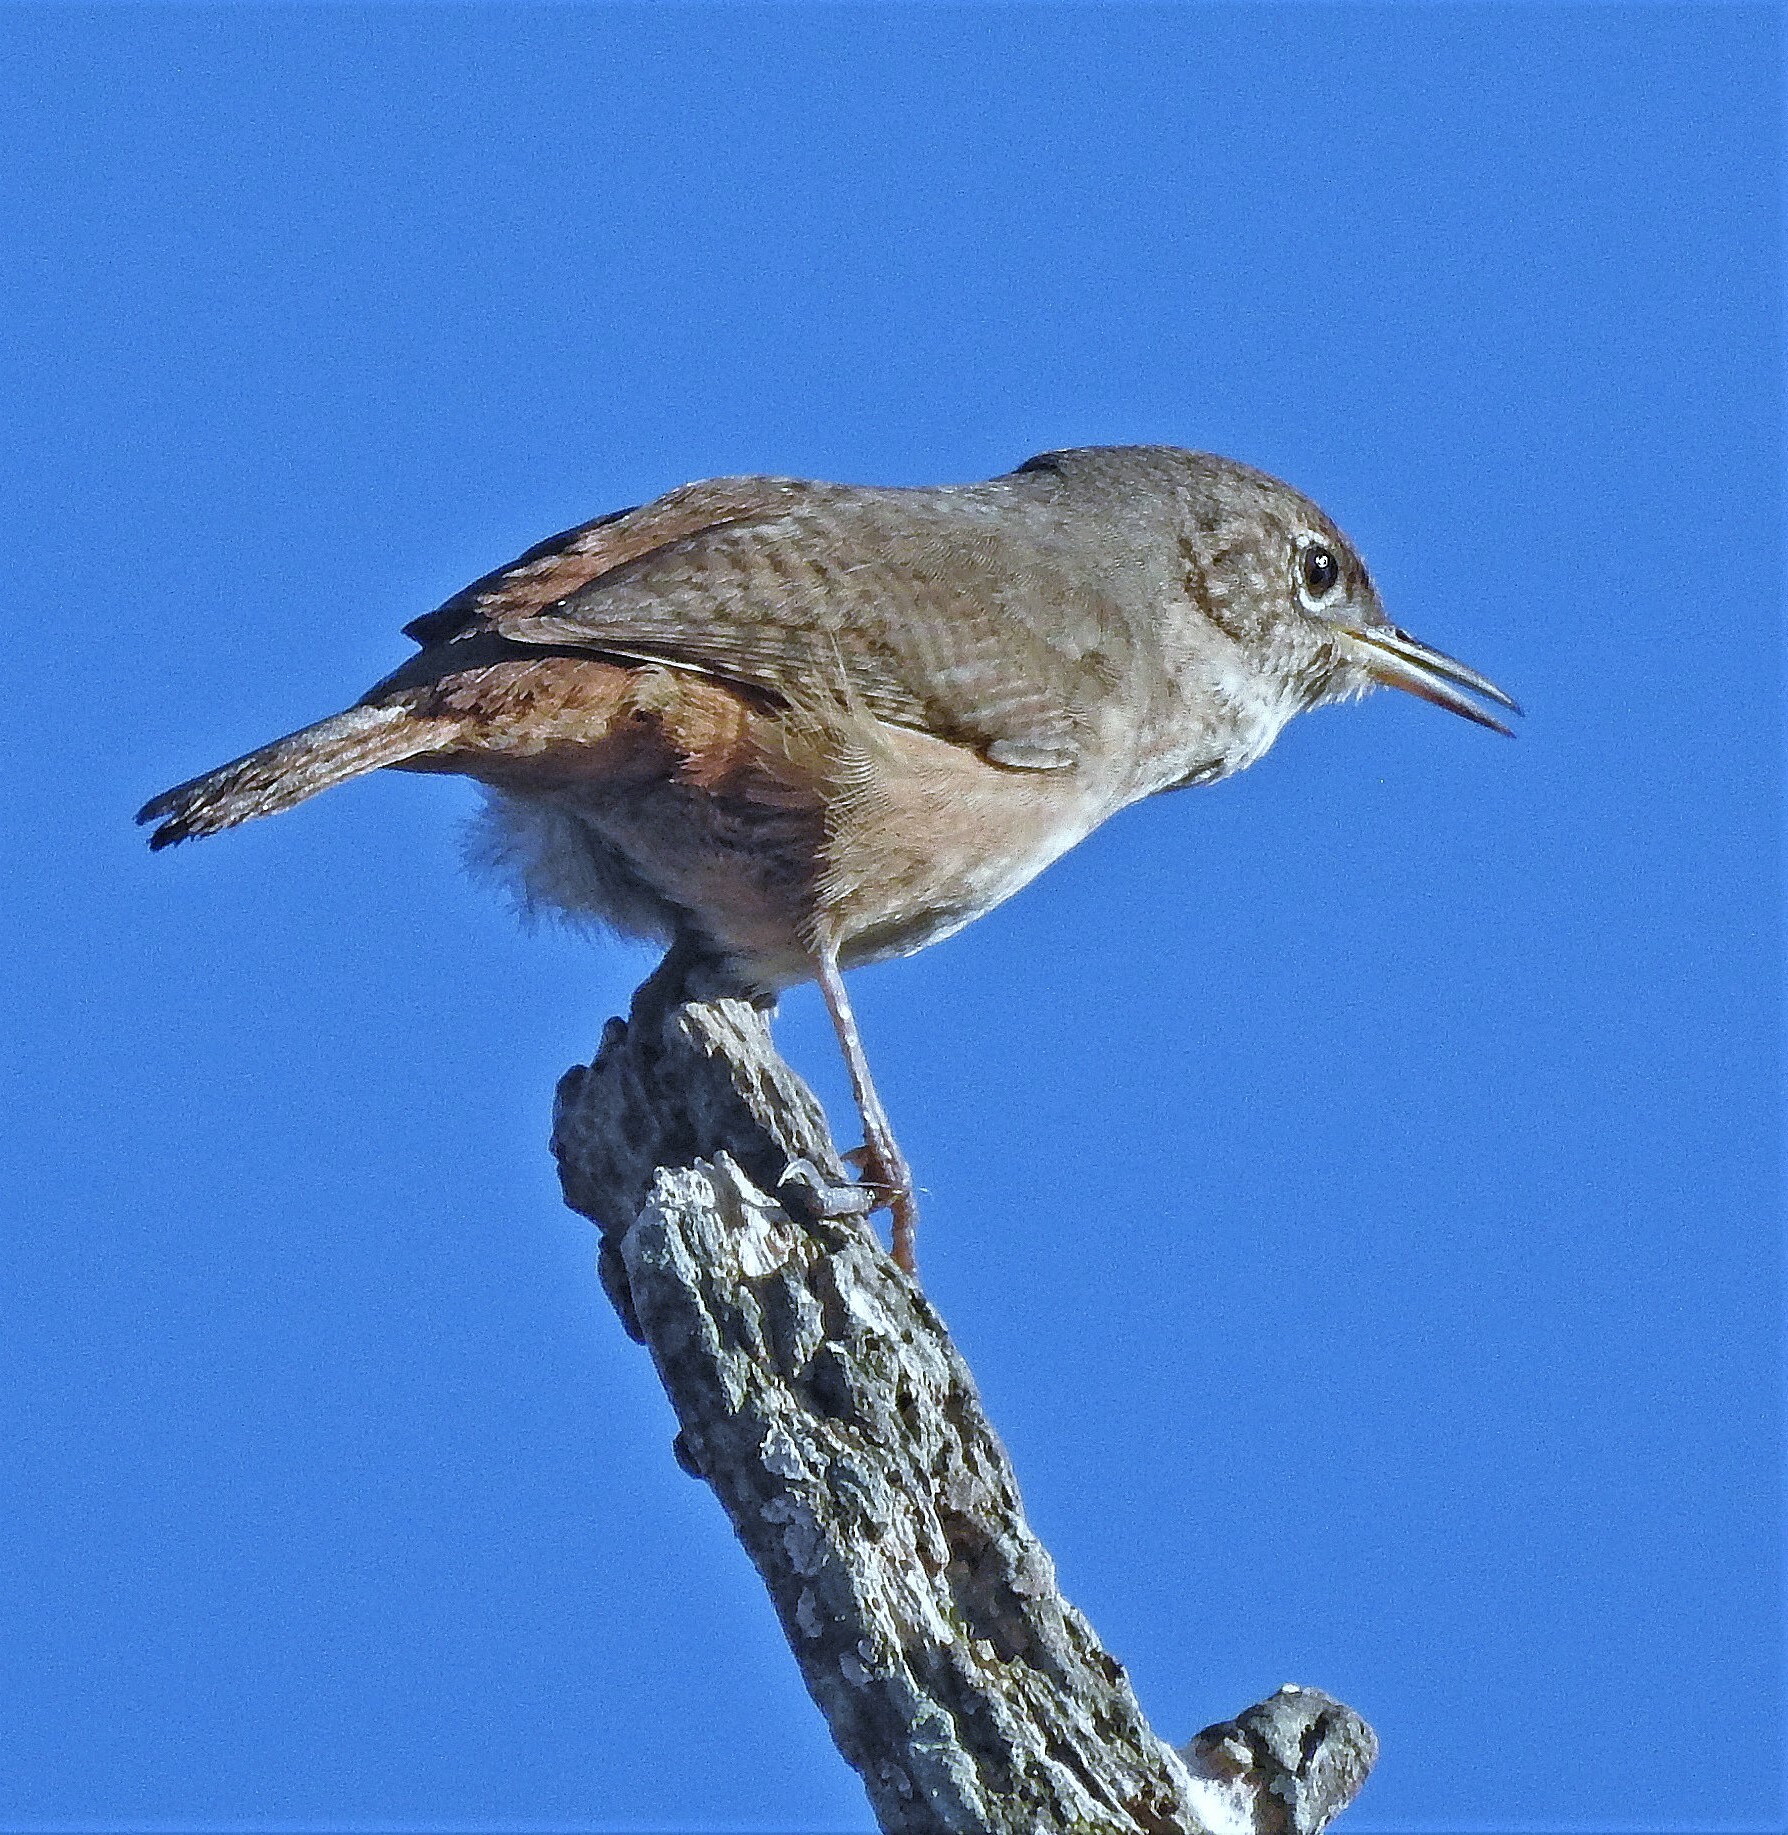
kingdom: Animalia
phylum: Chordata
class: Aves
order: Passeriformes
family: Troglodytidae
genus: Troglodytes
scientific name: Troglodytes aedon
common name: House wren
